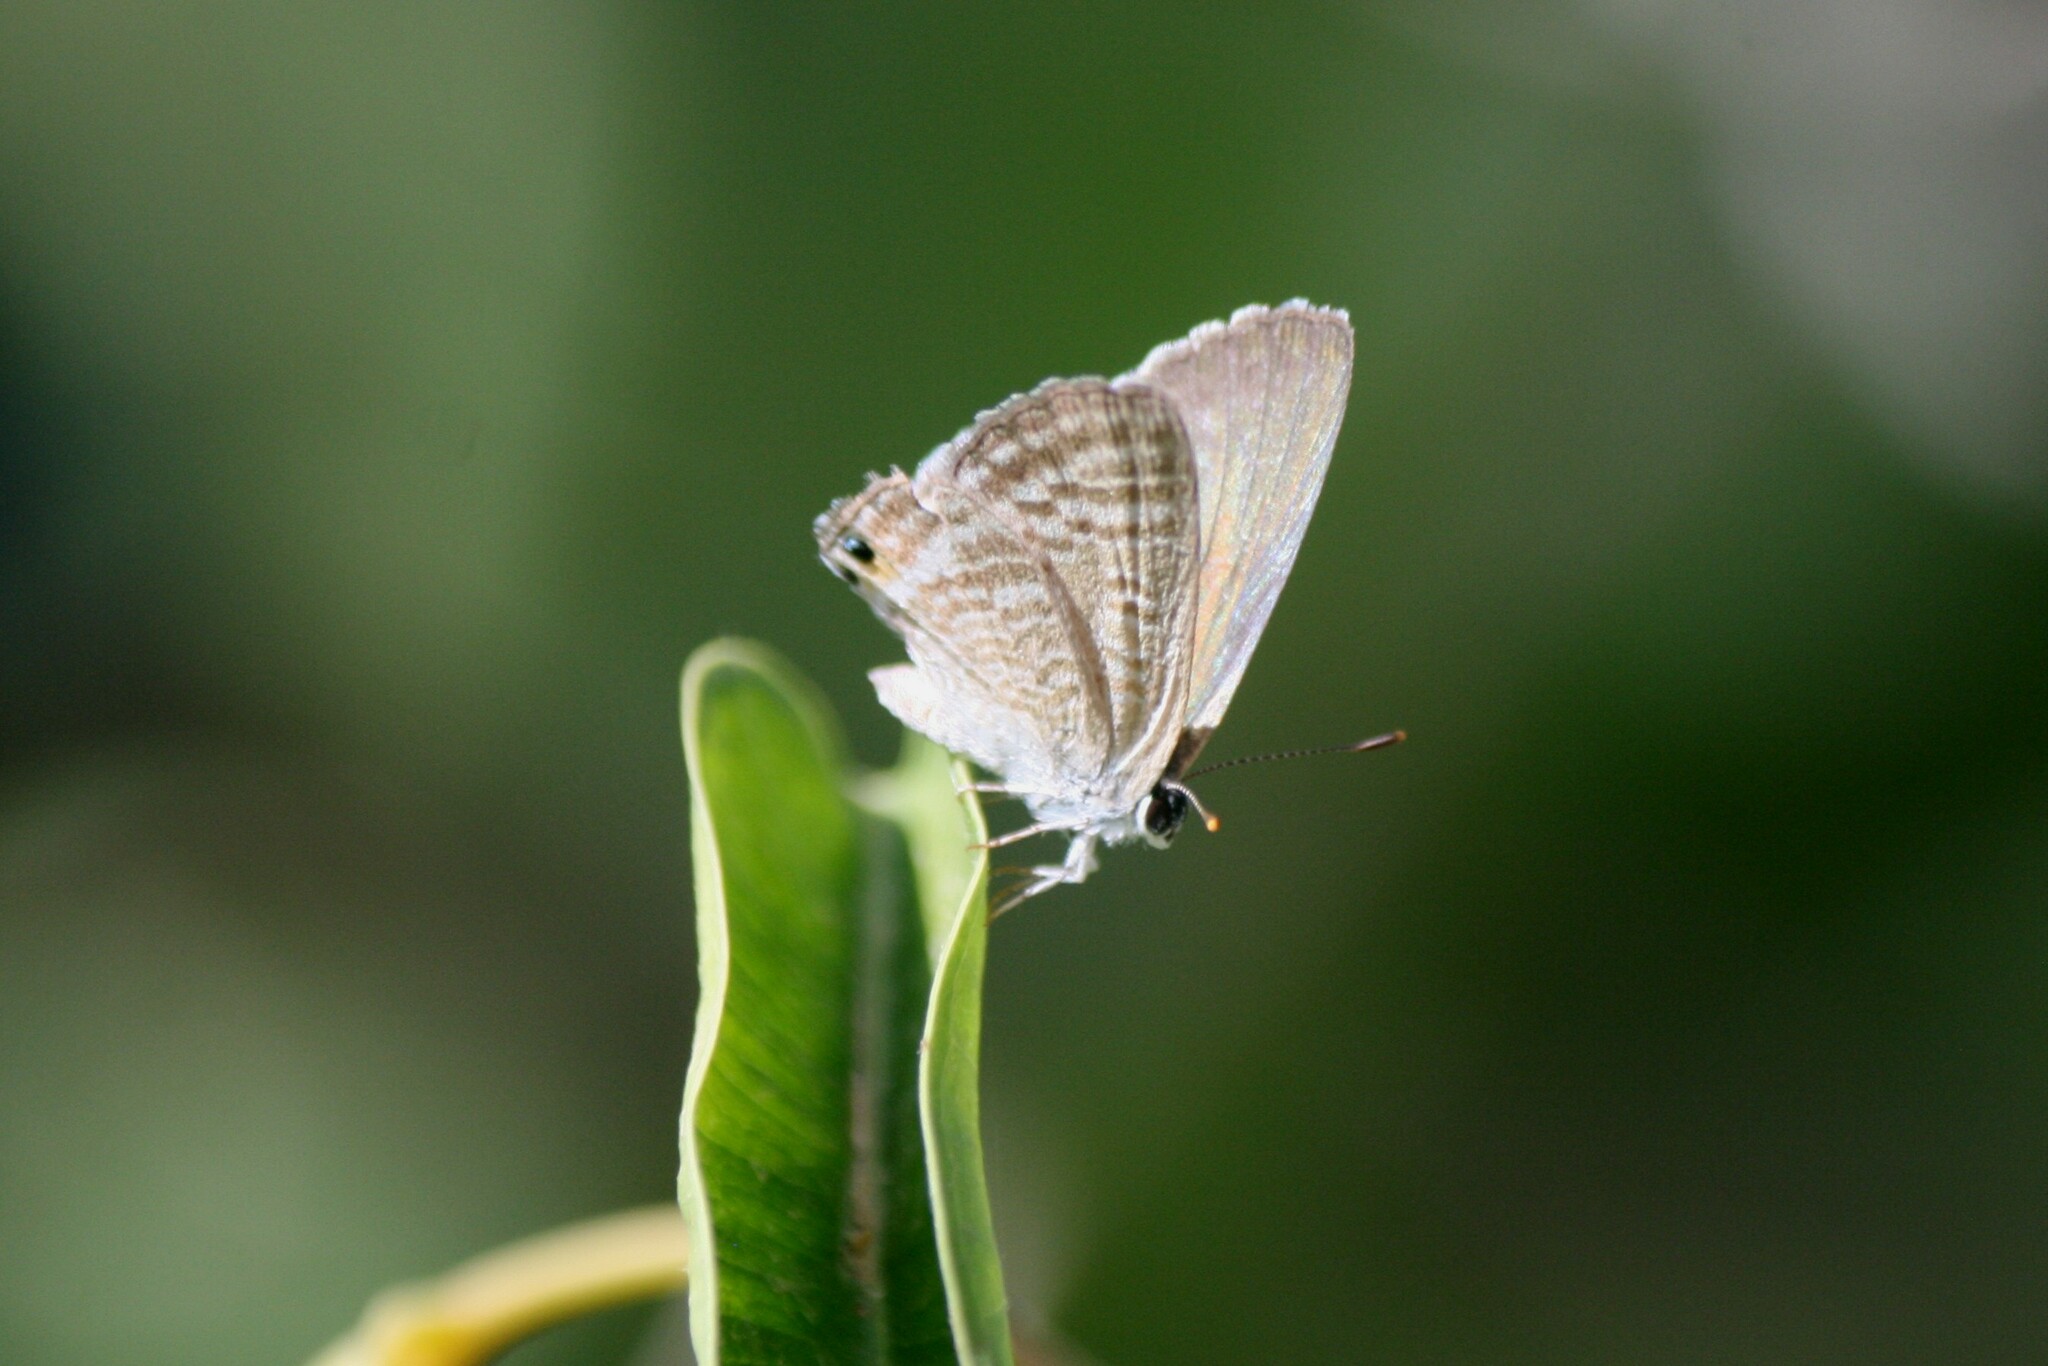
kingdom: Animalia
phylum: Arthropoda
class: Insecta
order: Lepidoptera
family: Lycaenidae
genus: Lampides
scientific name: Lampides boeticus
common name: Long-tailed blue
